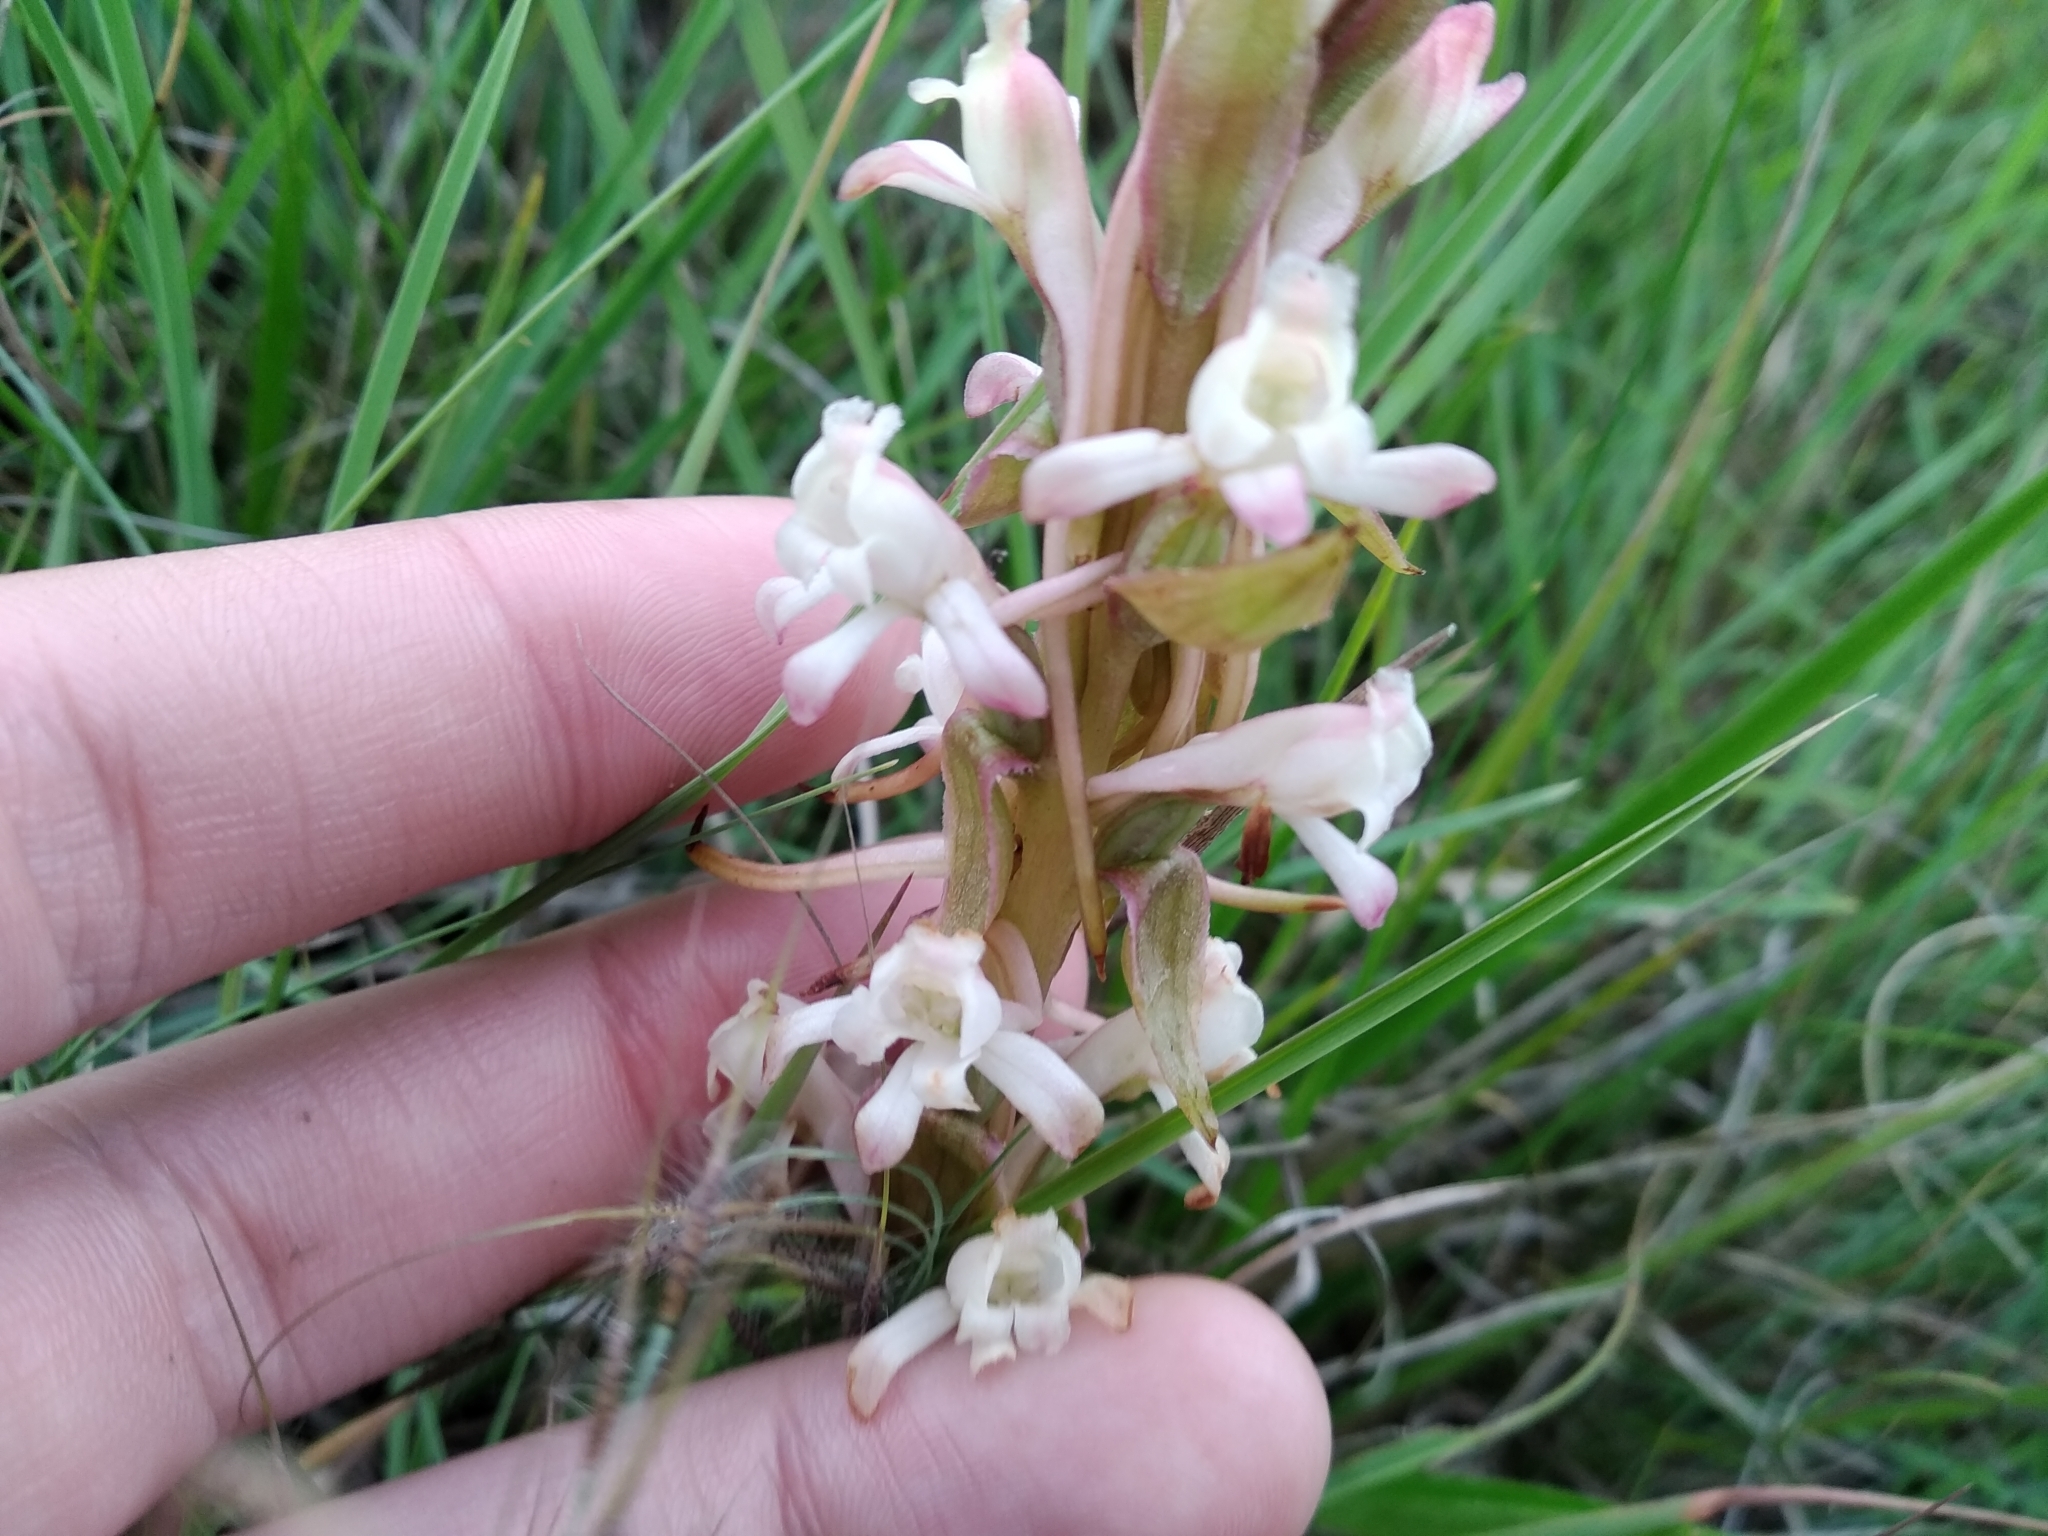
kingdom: Plantae
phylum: Tracheophyta
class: Liliopsida
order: Asparagales
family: Orchidaceae
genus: Satyrium
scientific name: Satyrium longicauda
